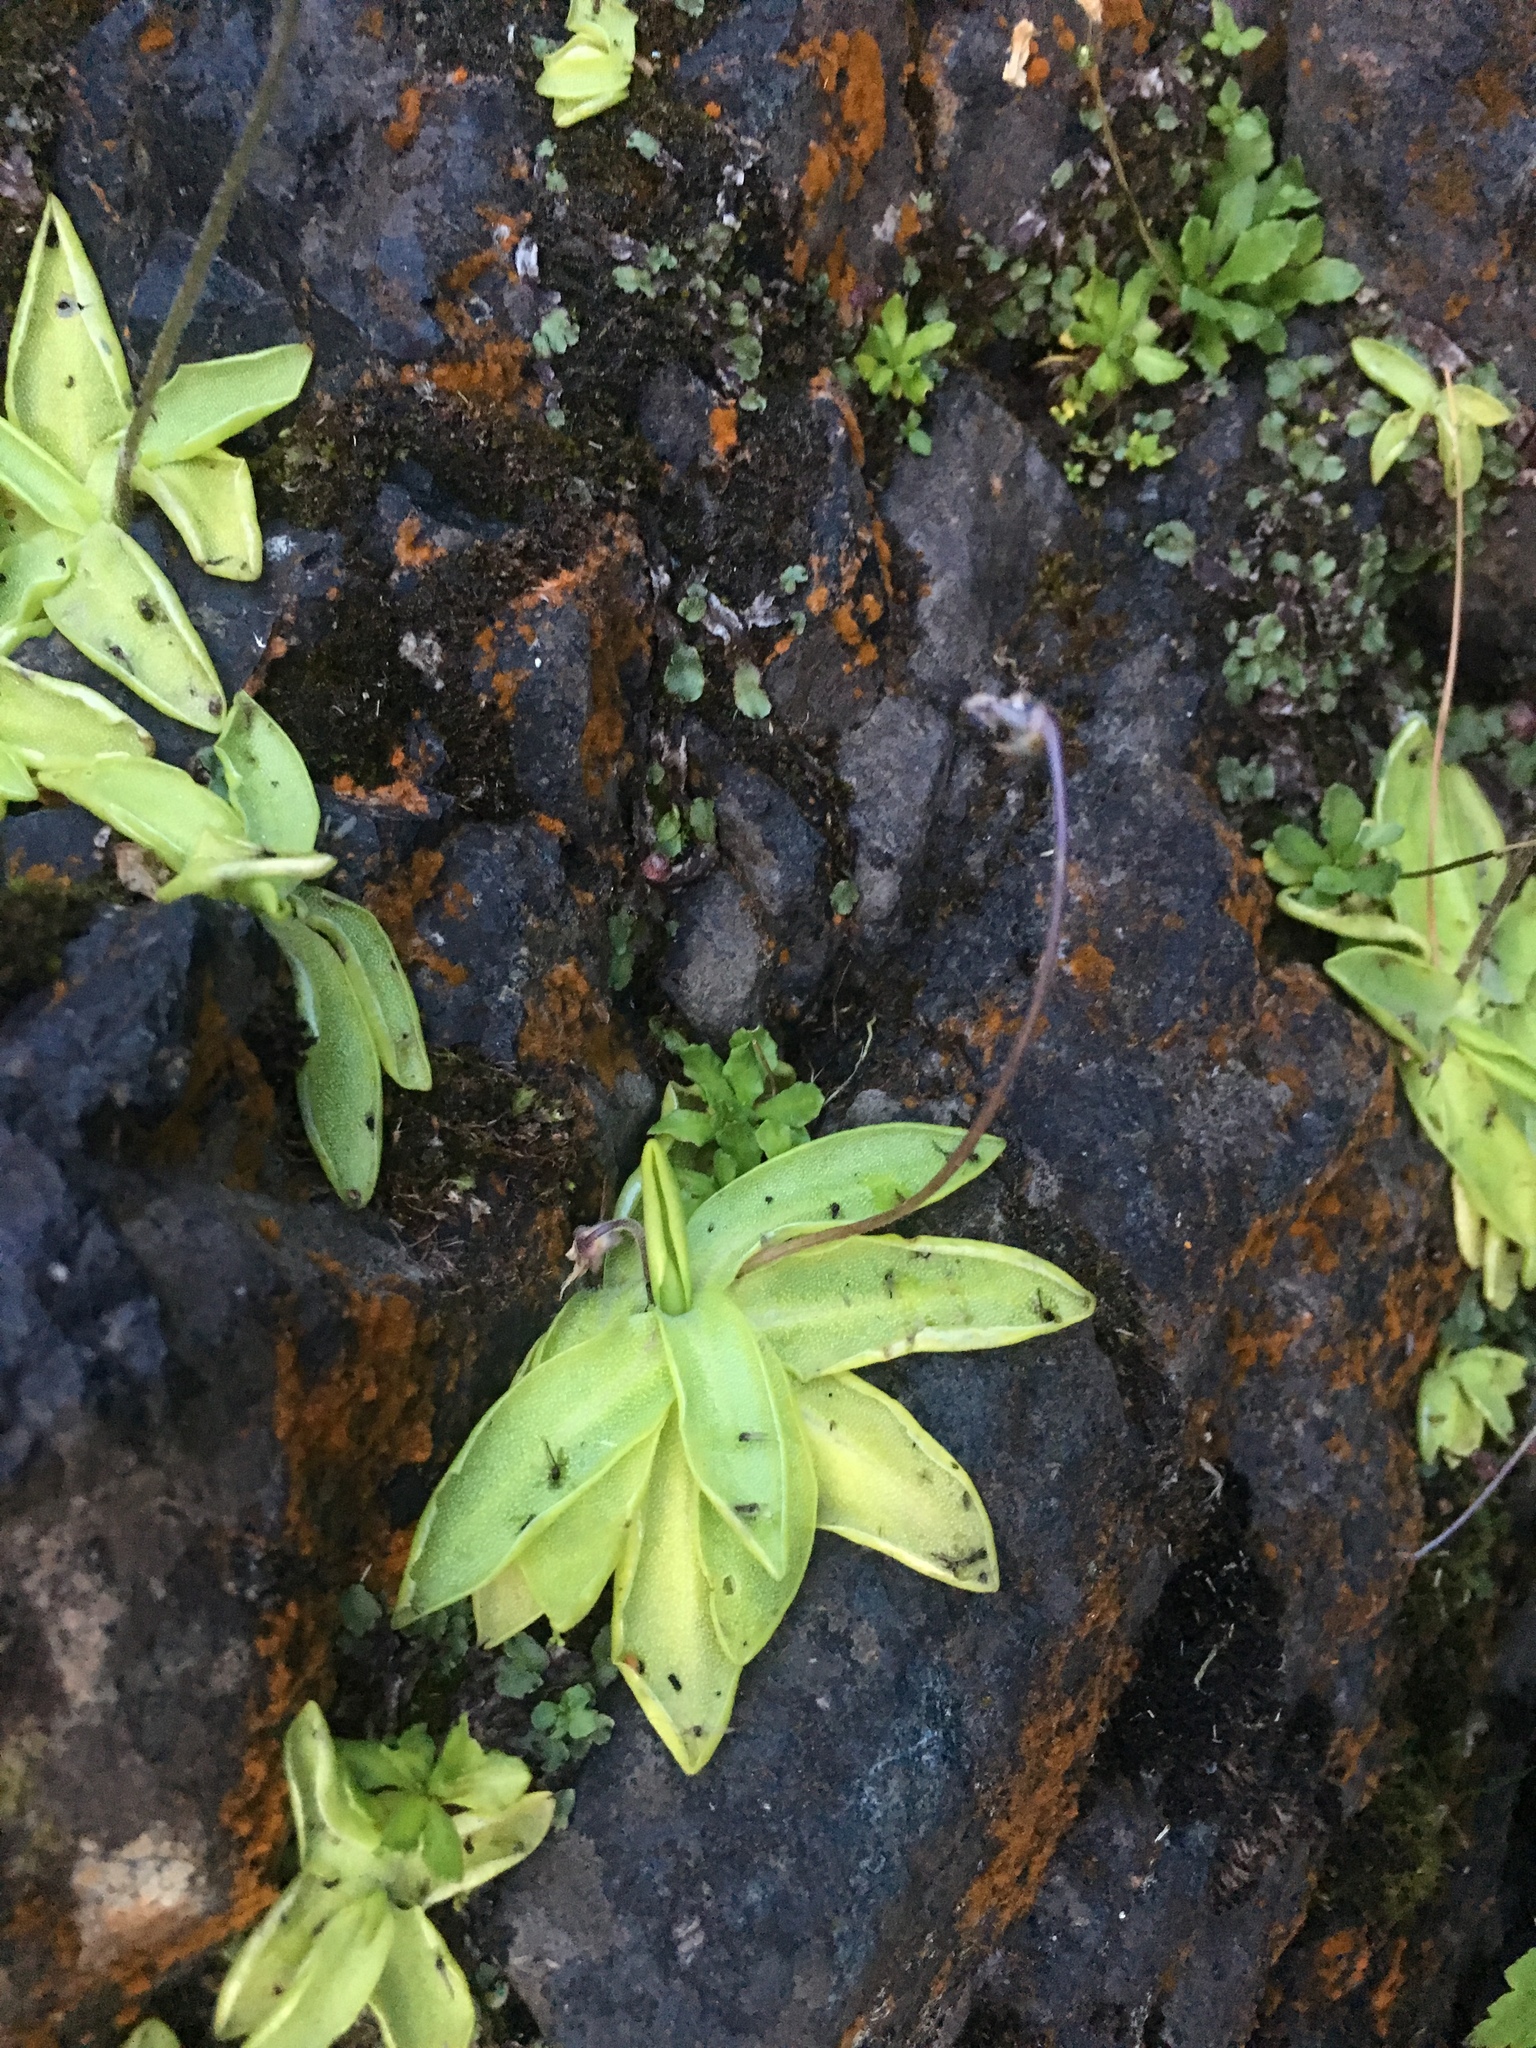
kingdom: Plantae
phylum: Tracheophyta
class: Magnoliopsida
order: Lamiales
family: Lentibulariaceae
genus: Pinguicula
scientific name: Pinguicula vulgaris
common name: Common butterwort
